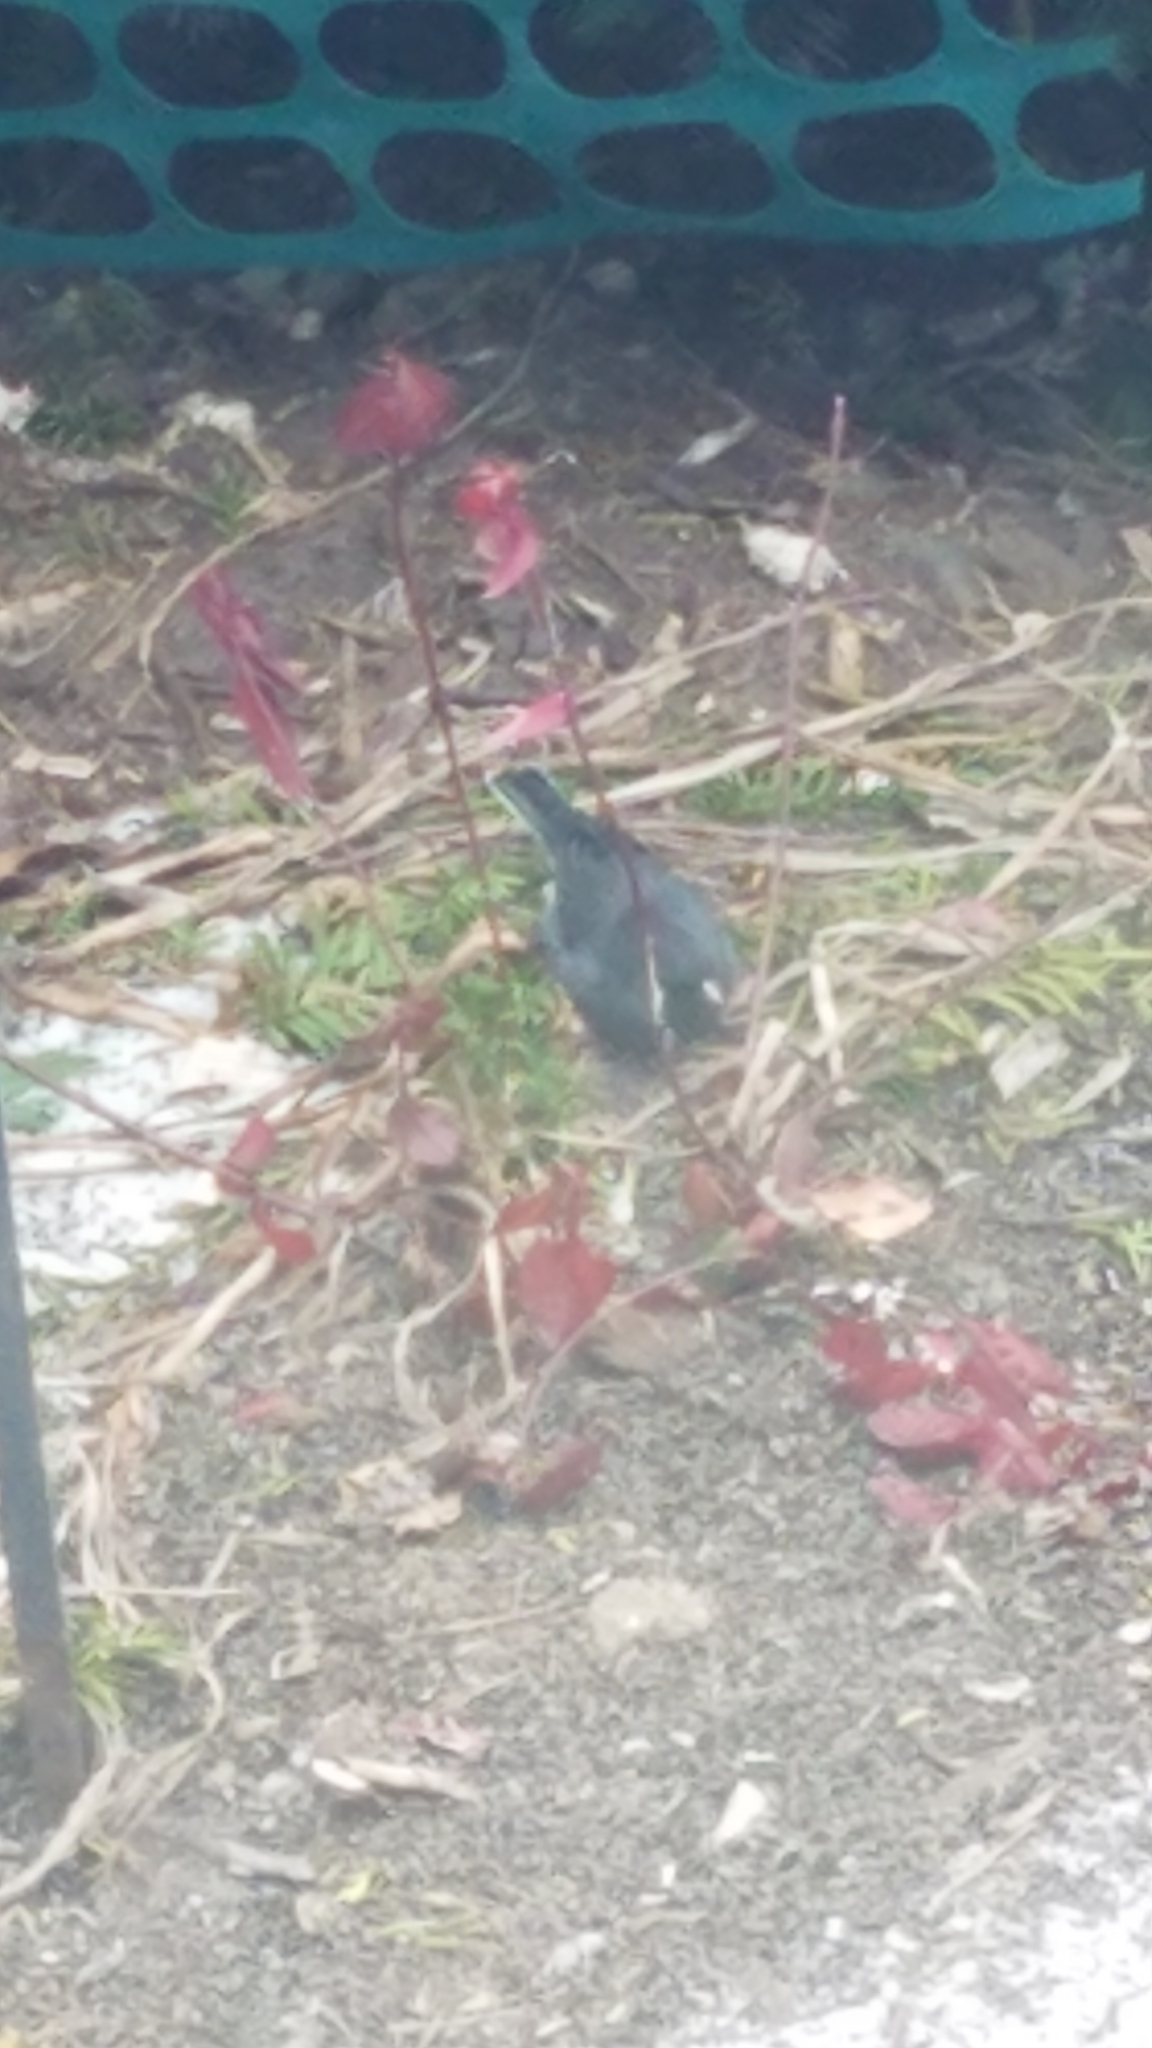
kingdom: Animalia
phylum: Chordata
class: Aves
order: Passeriformes
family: Passerellidae
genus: Junco
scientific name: Junco hyemalis
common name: Dark-eyed junco
